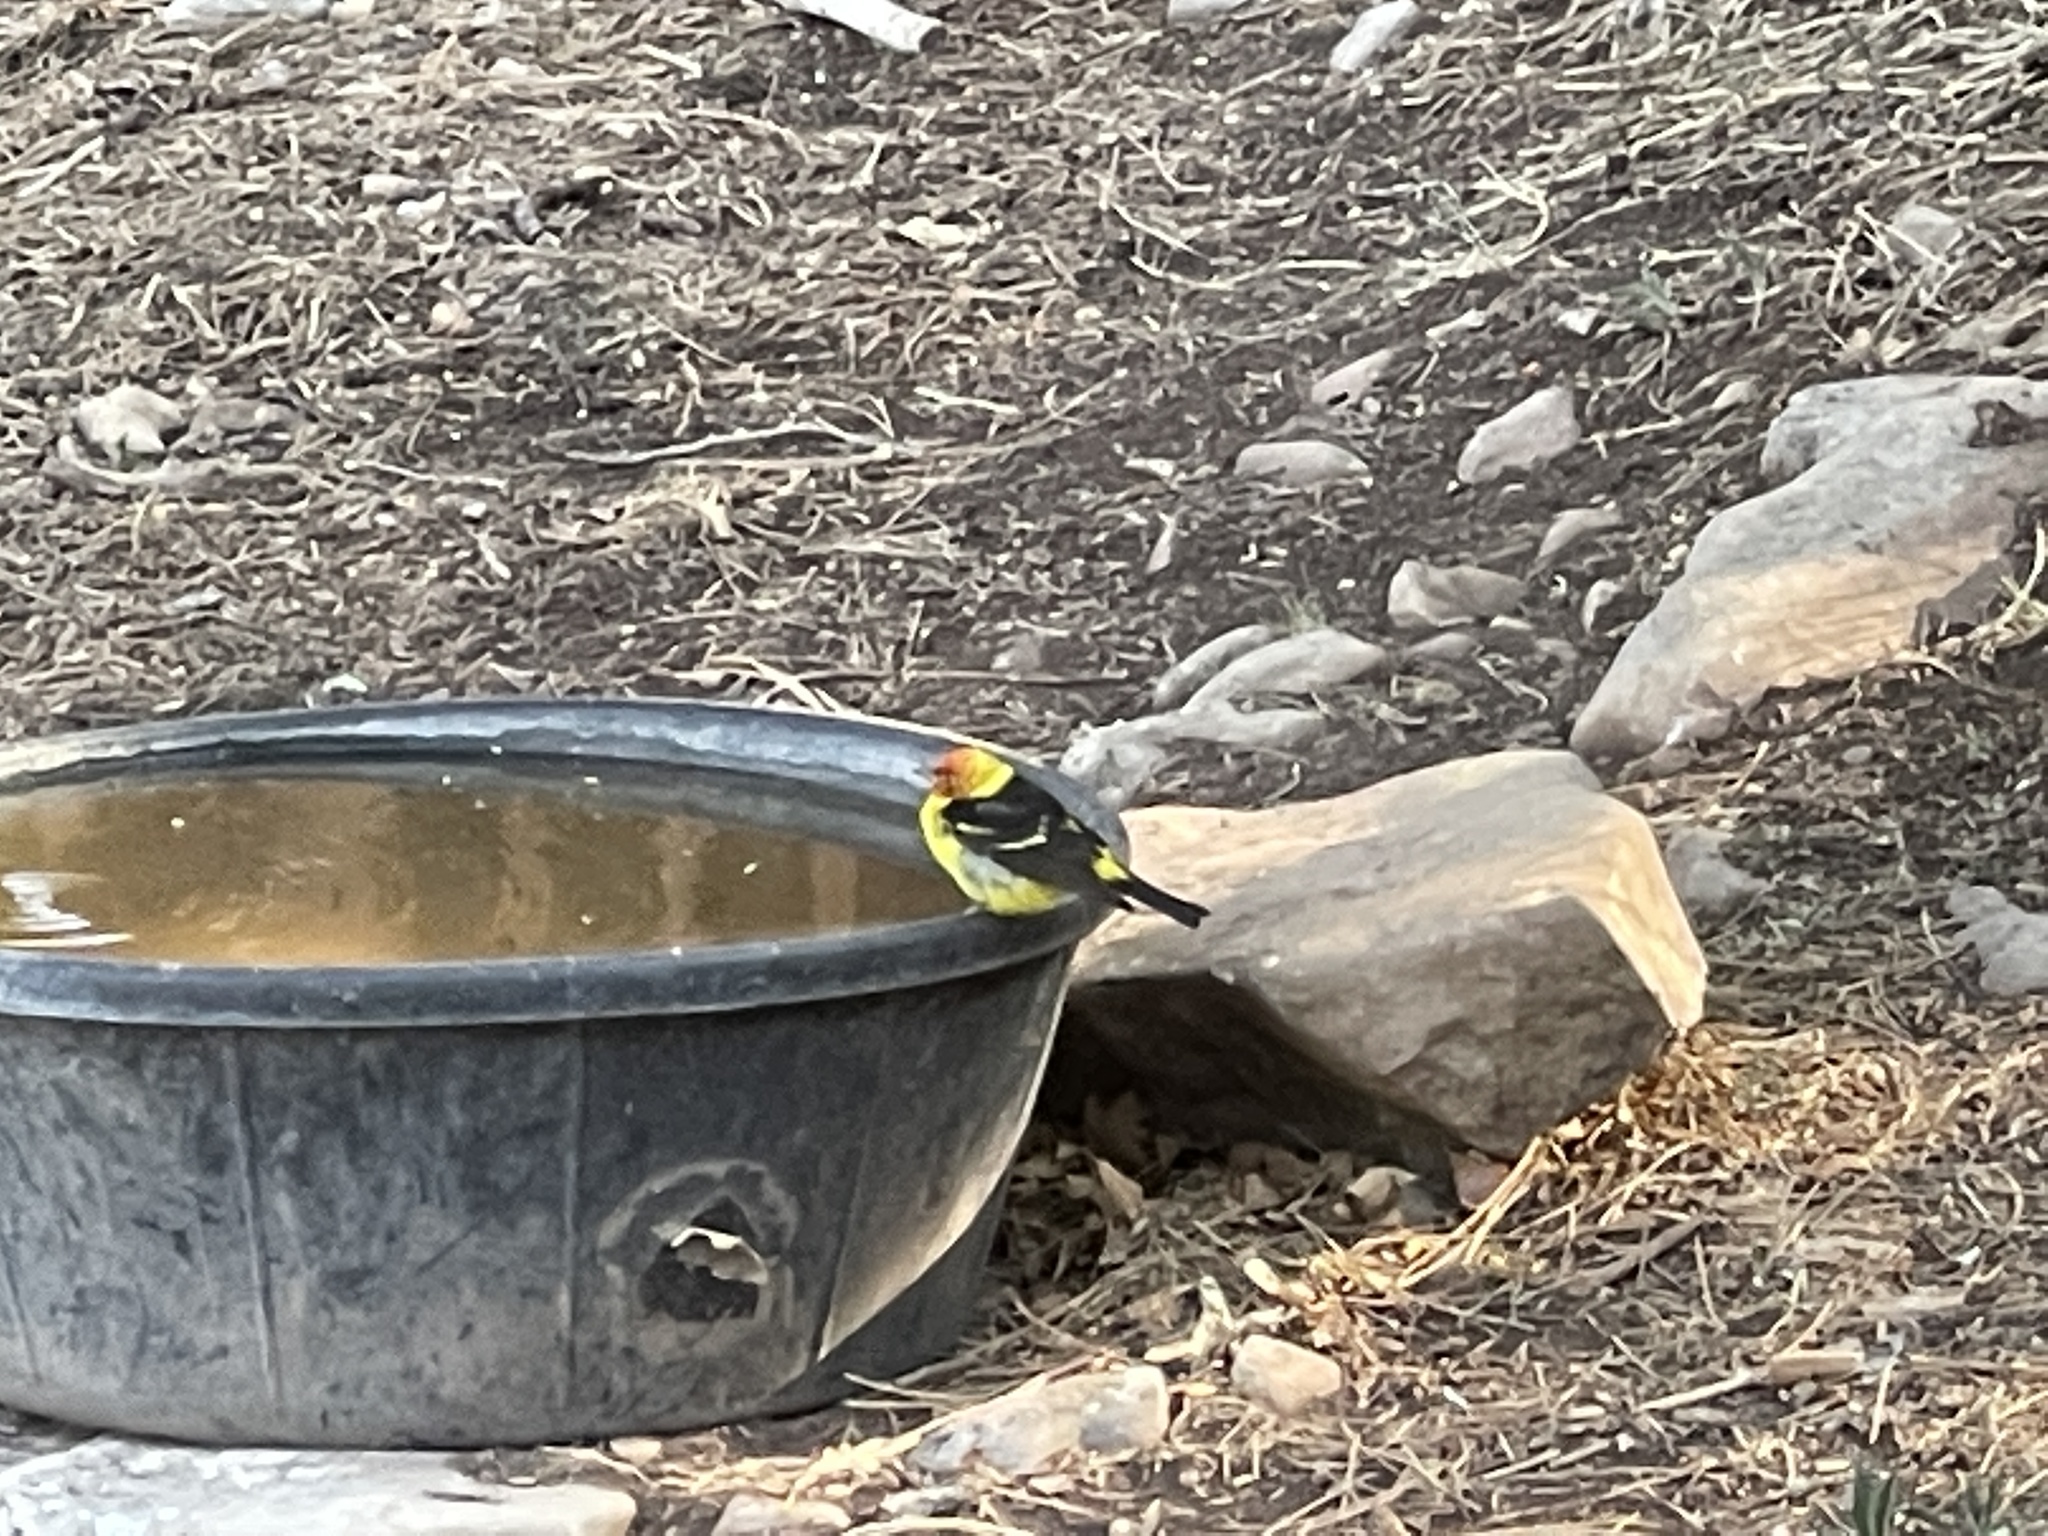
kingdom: Animalia
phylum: Chordata
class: Aves
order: Passeriformes
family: Cardinalidae
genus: Piranga
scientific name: Piranga ludoviciana
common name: Western tanager
